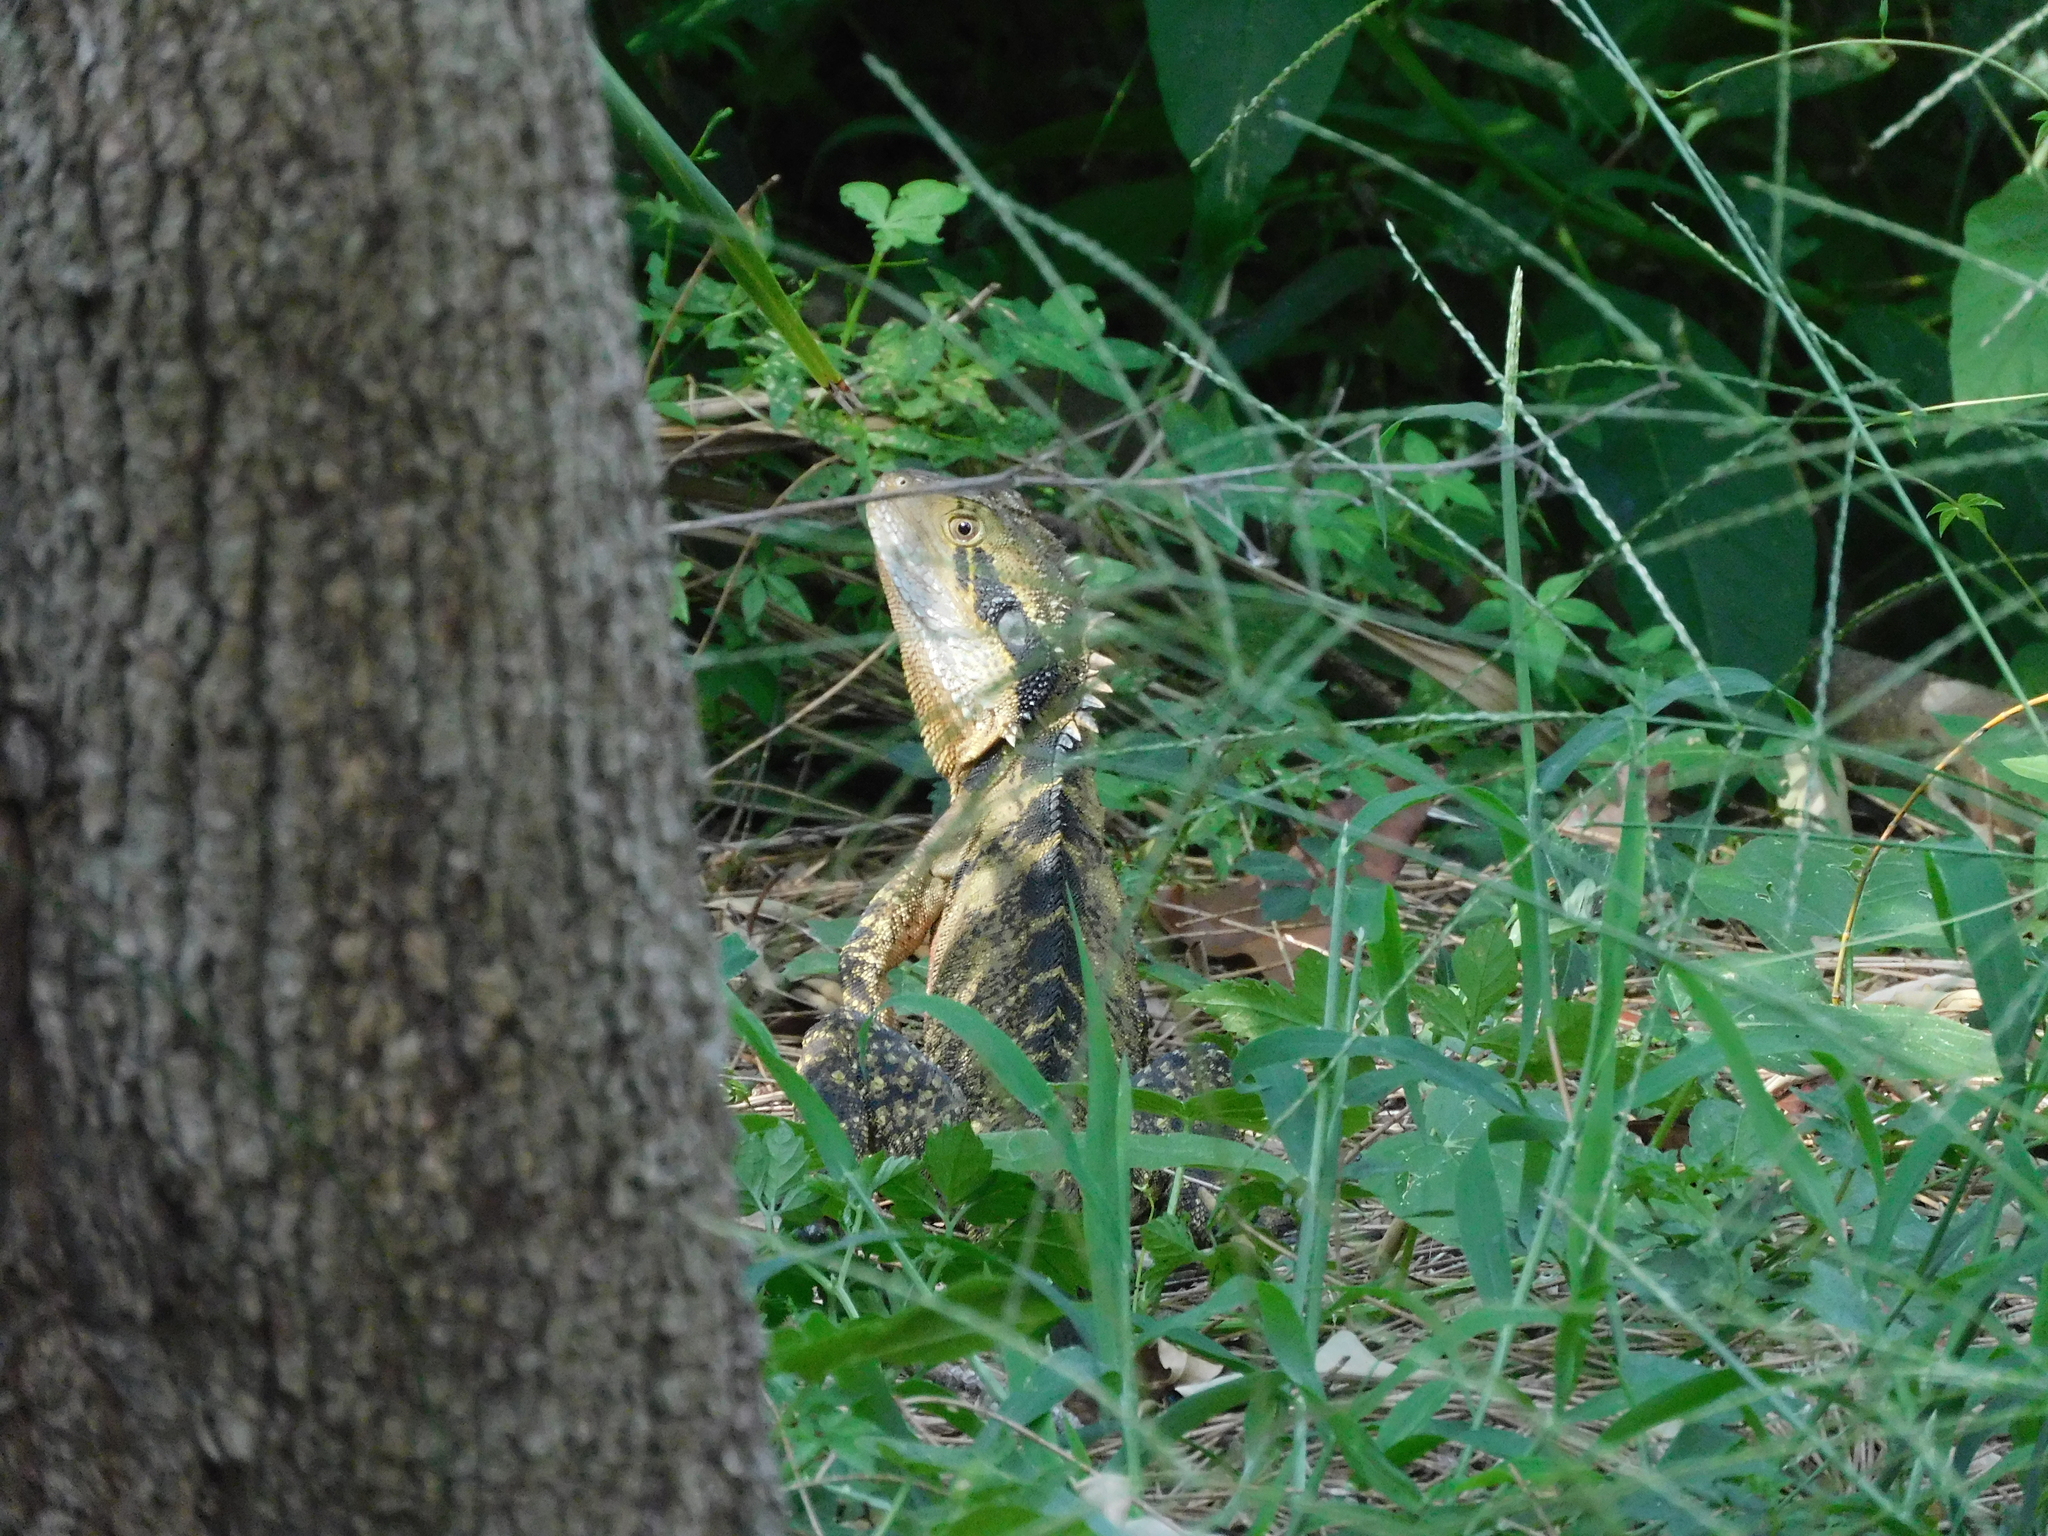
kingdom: Animalia
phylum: Chordata
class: Squamata
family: Agamidae
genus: Intellagama
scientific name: Intellagama lesueurii
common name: Eastern water dragon
